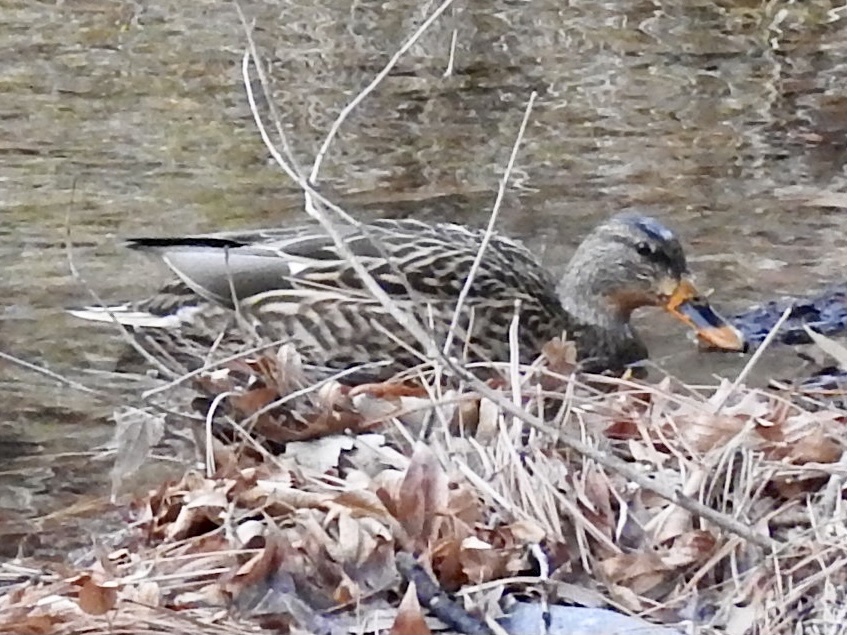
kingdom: Animalia
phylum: Chordata
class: Aves
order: Anseriformes
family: Anatidae
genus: Anas
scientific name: Anas platyrhynchos
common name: Mallard
